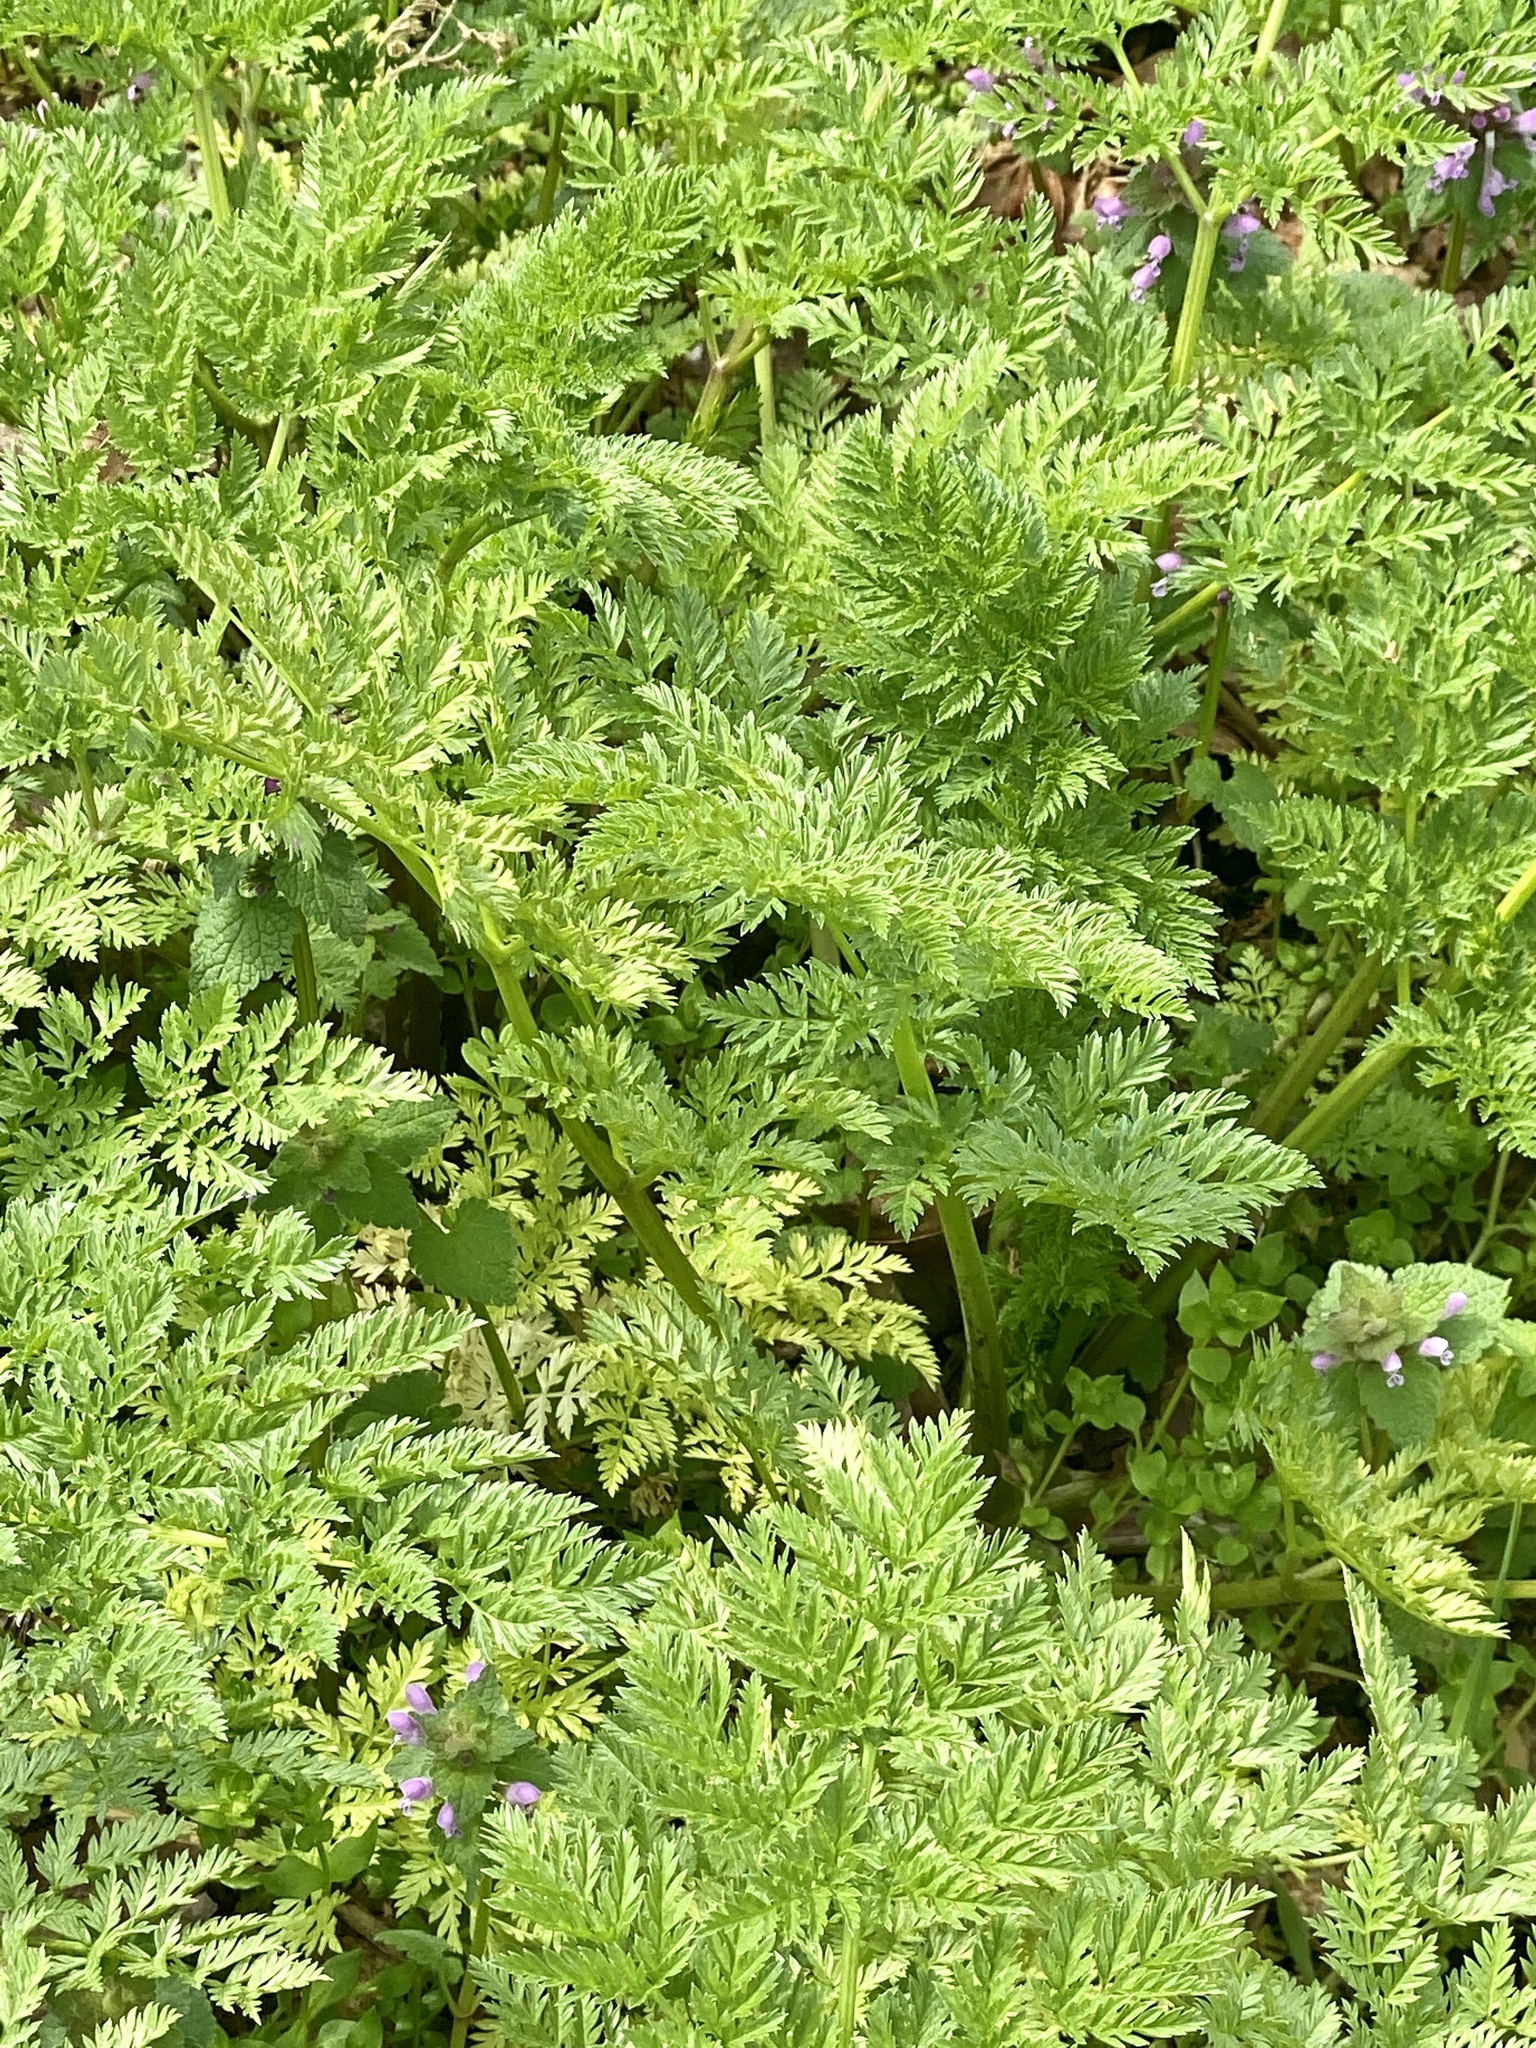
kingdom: Plantae
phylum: Tracheophyta
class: Magnoliopsida
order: Apiales
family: Apiaceae
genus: Conium
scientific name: Conium maculatum
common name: Hemlock
